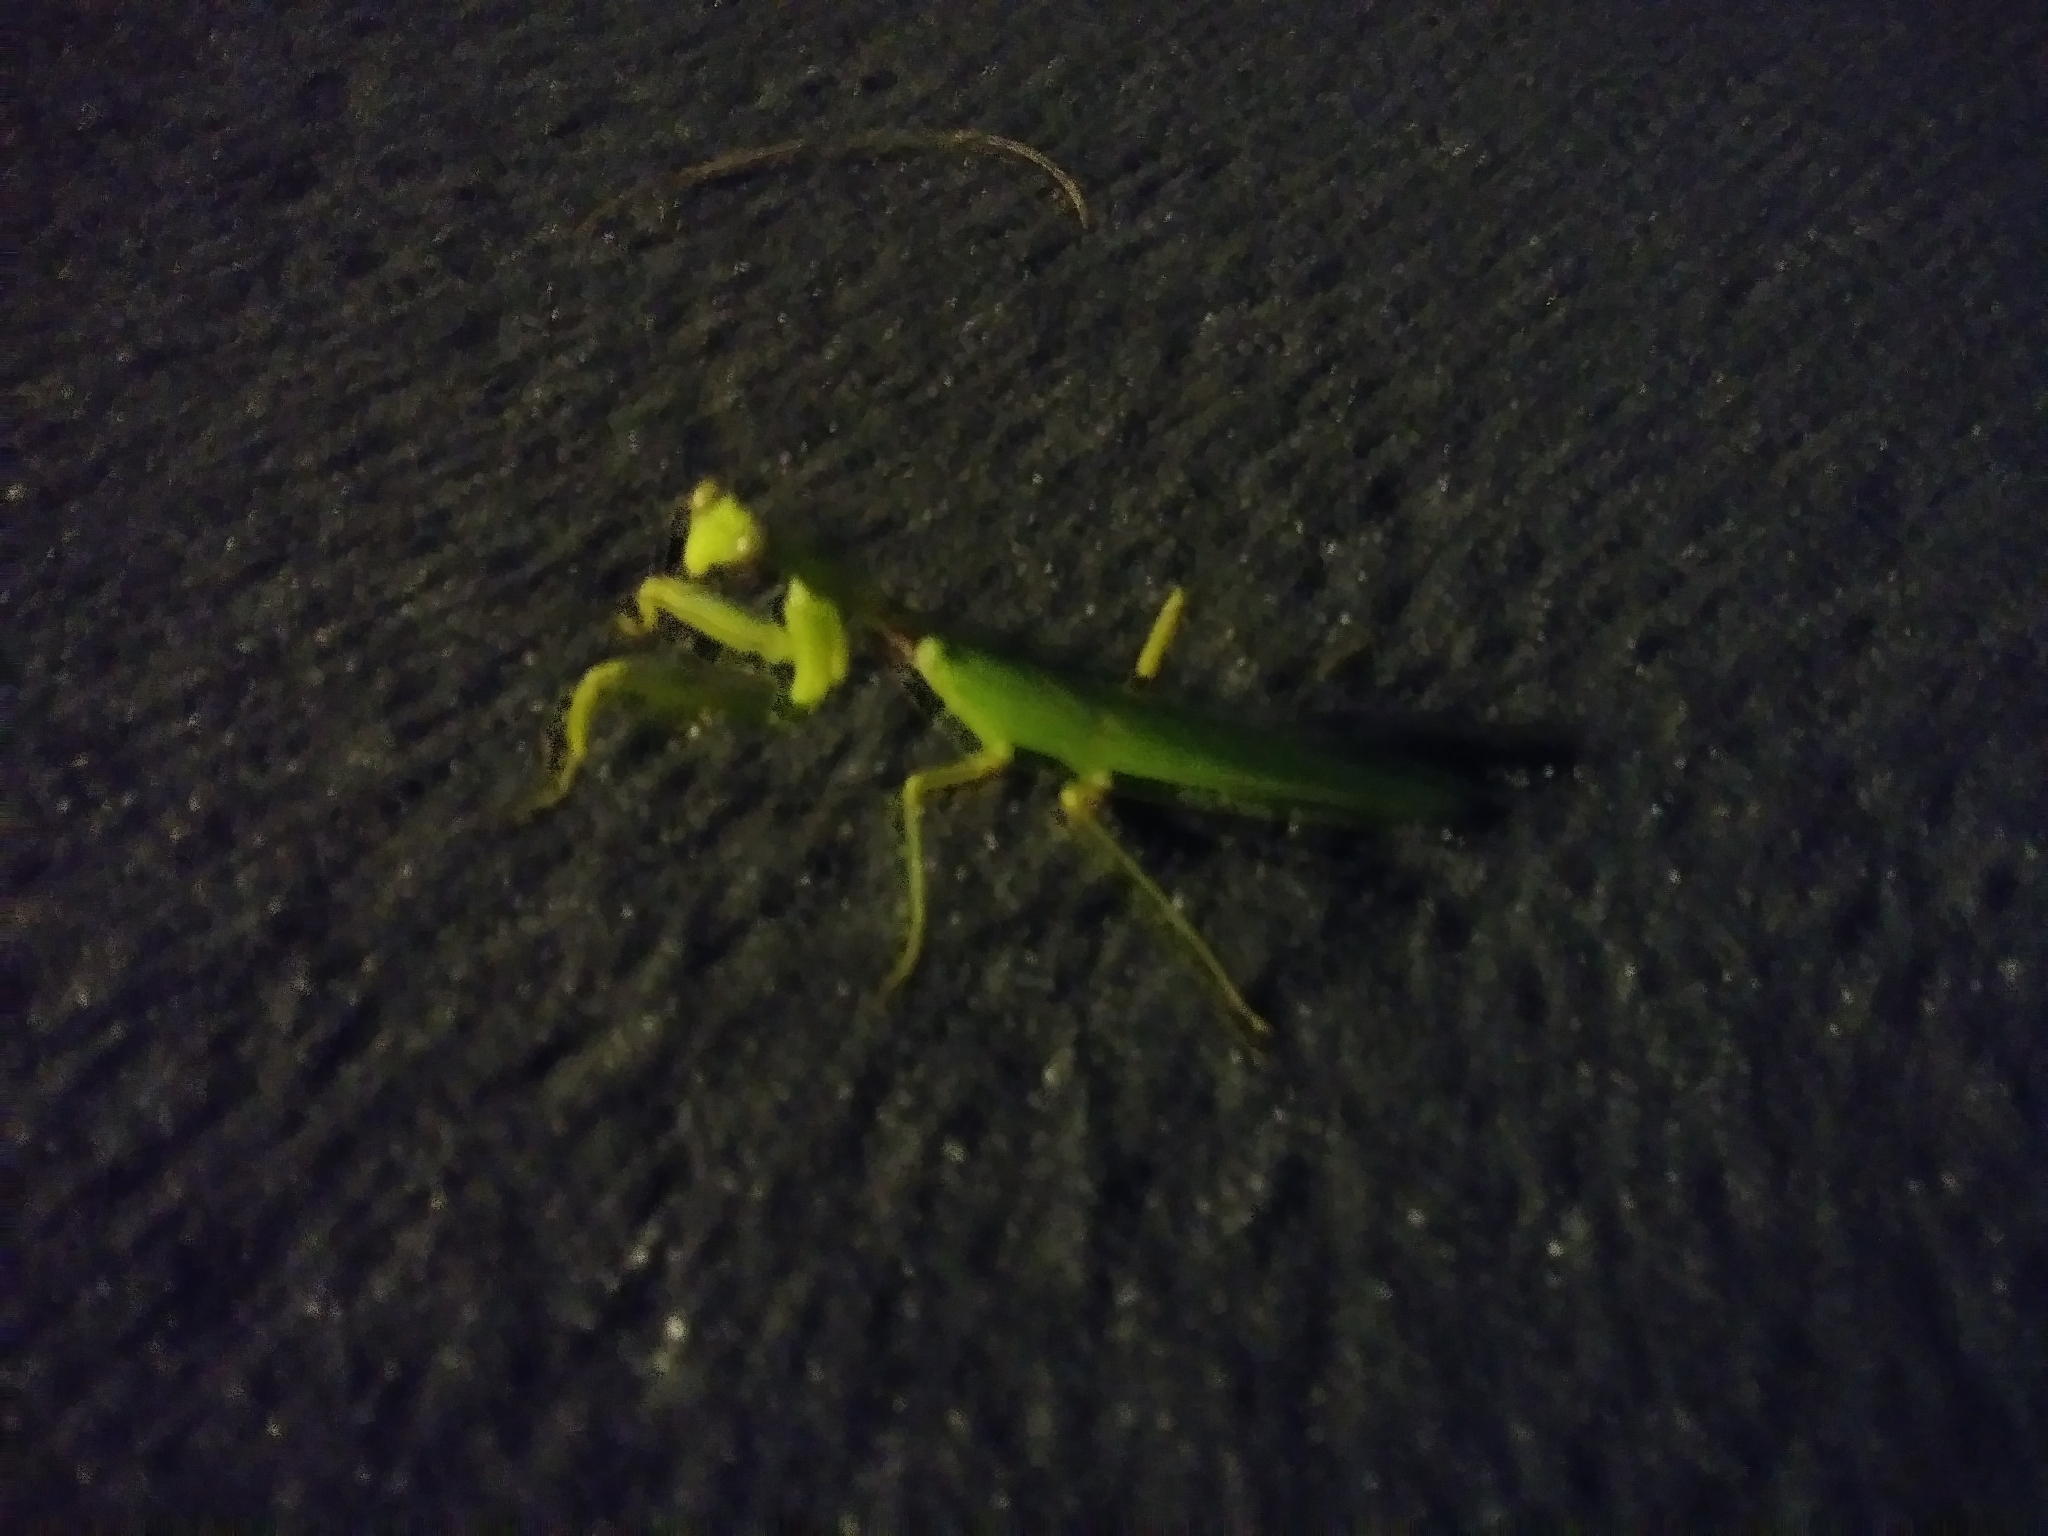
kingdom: Animalia
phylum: Arthropoda
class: Insecta
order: Mantodea
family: Mantidae
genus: Hierodula
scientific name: Hierodula patellifera
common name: Asian mantis
